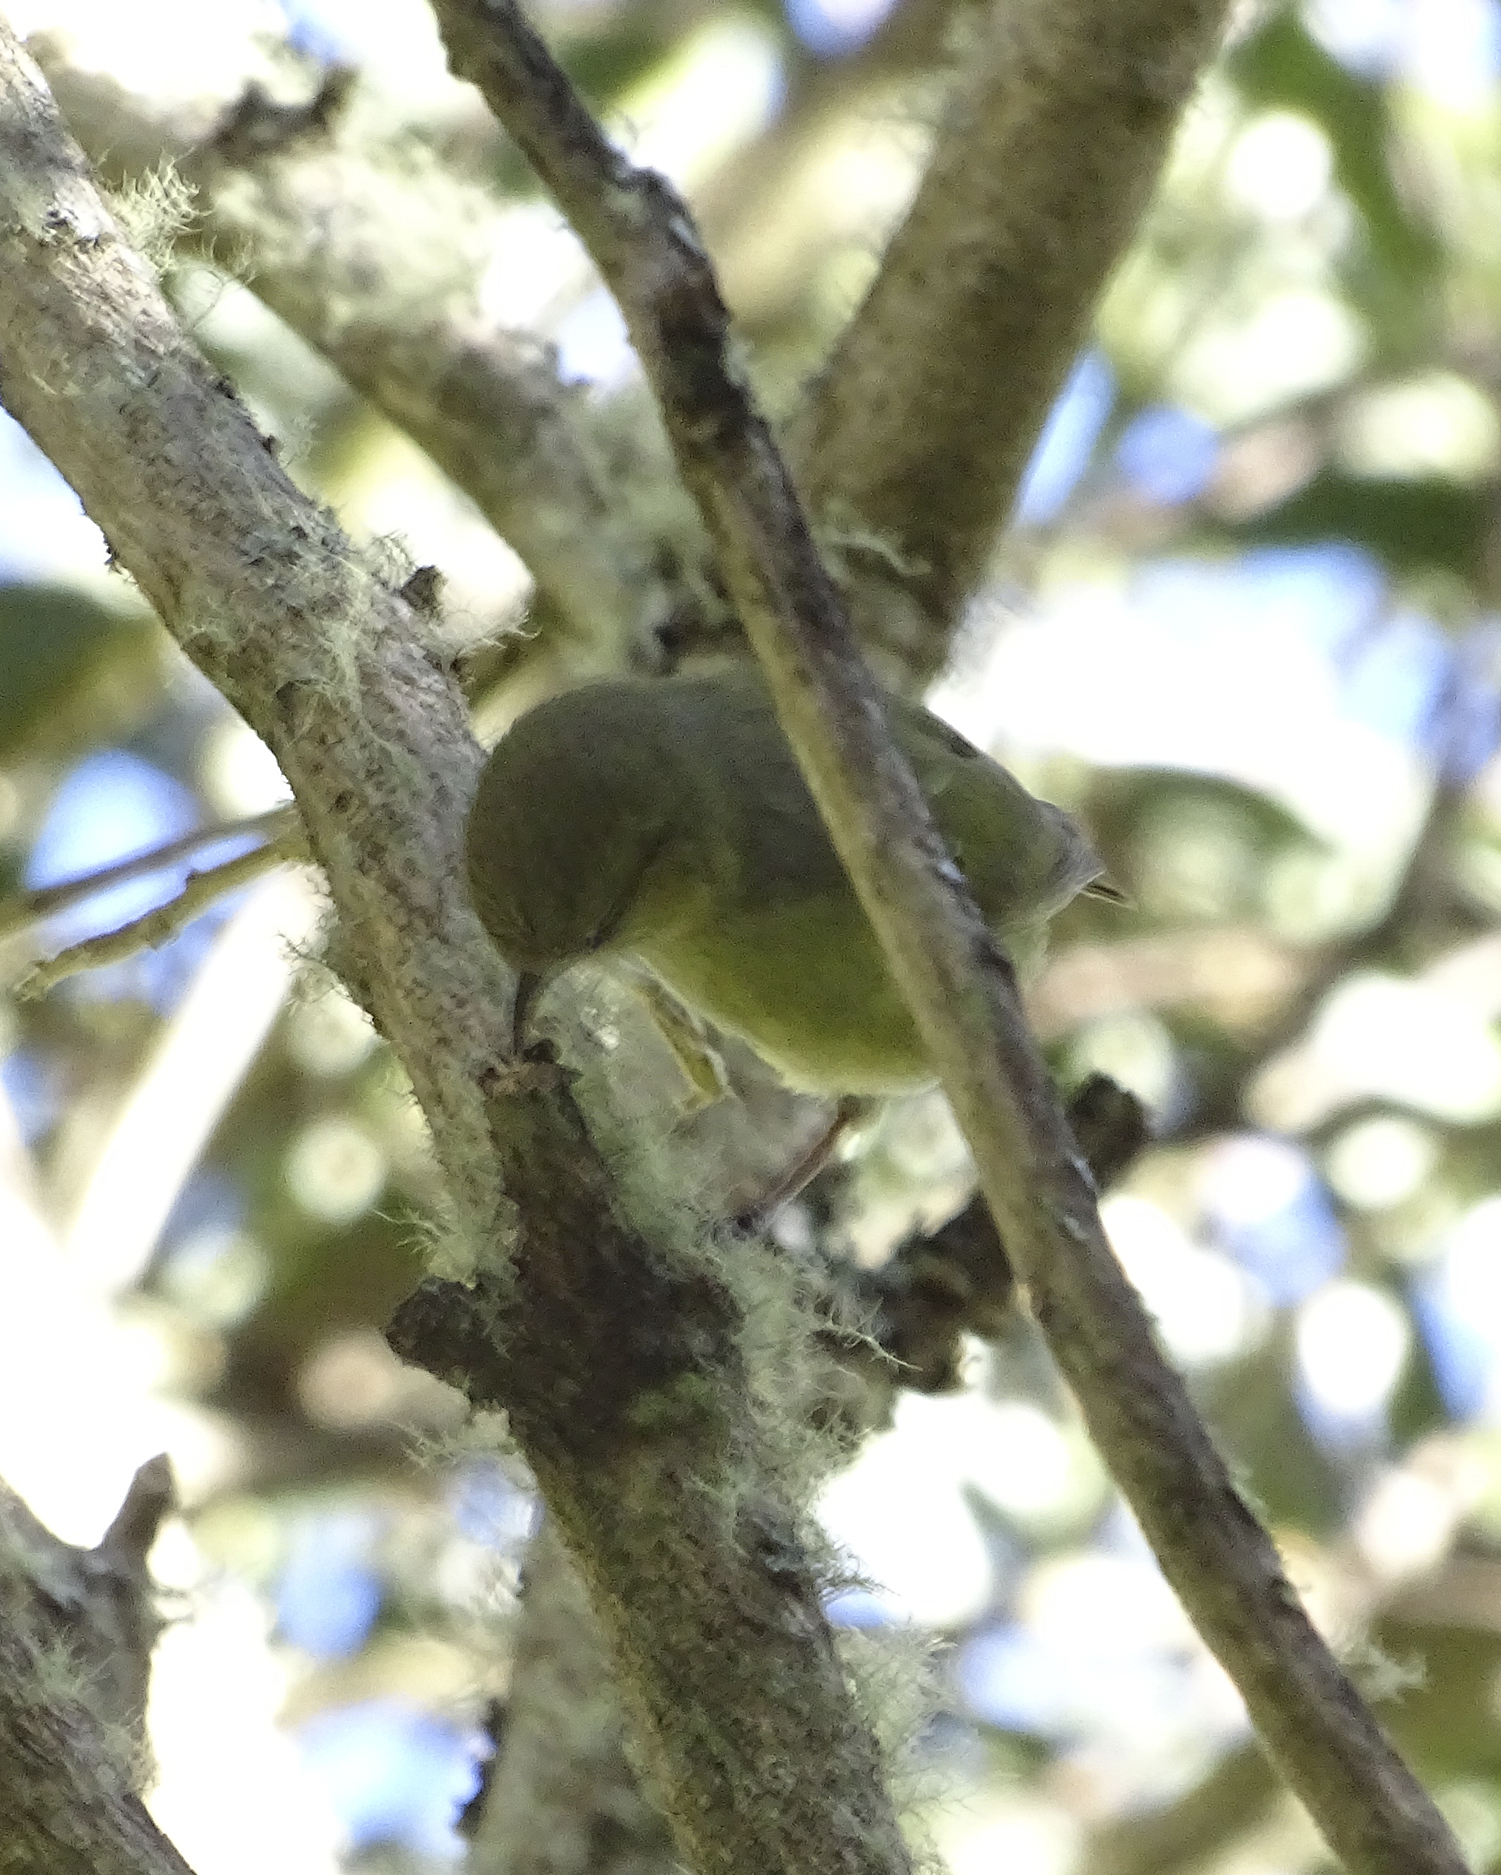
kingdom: Animalia
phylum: Chordata
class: Aves
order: Passeriformes
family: Fringillidae
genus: Chlorodrepanis
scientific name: Chlorodrepanis virens
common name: Hawaii amakihi
